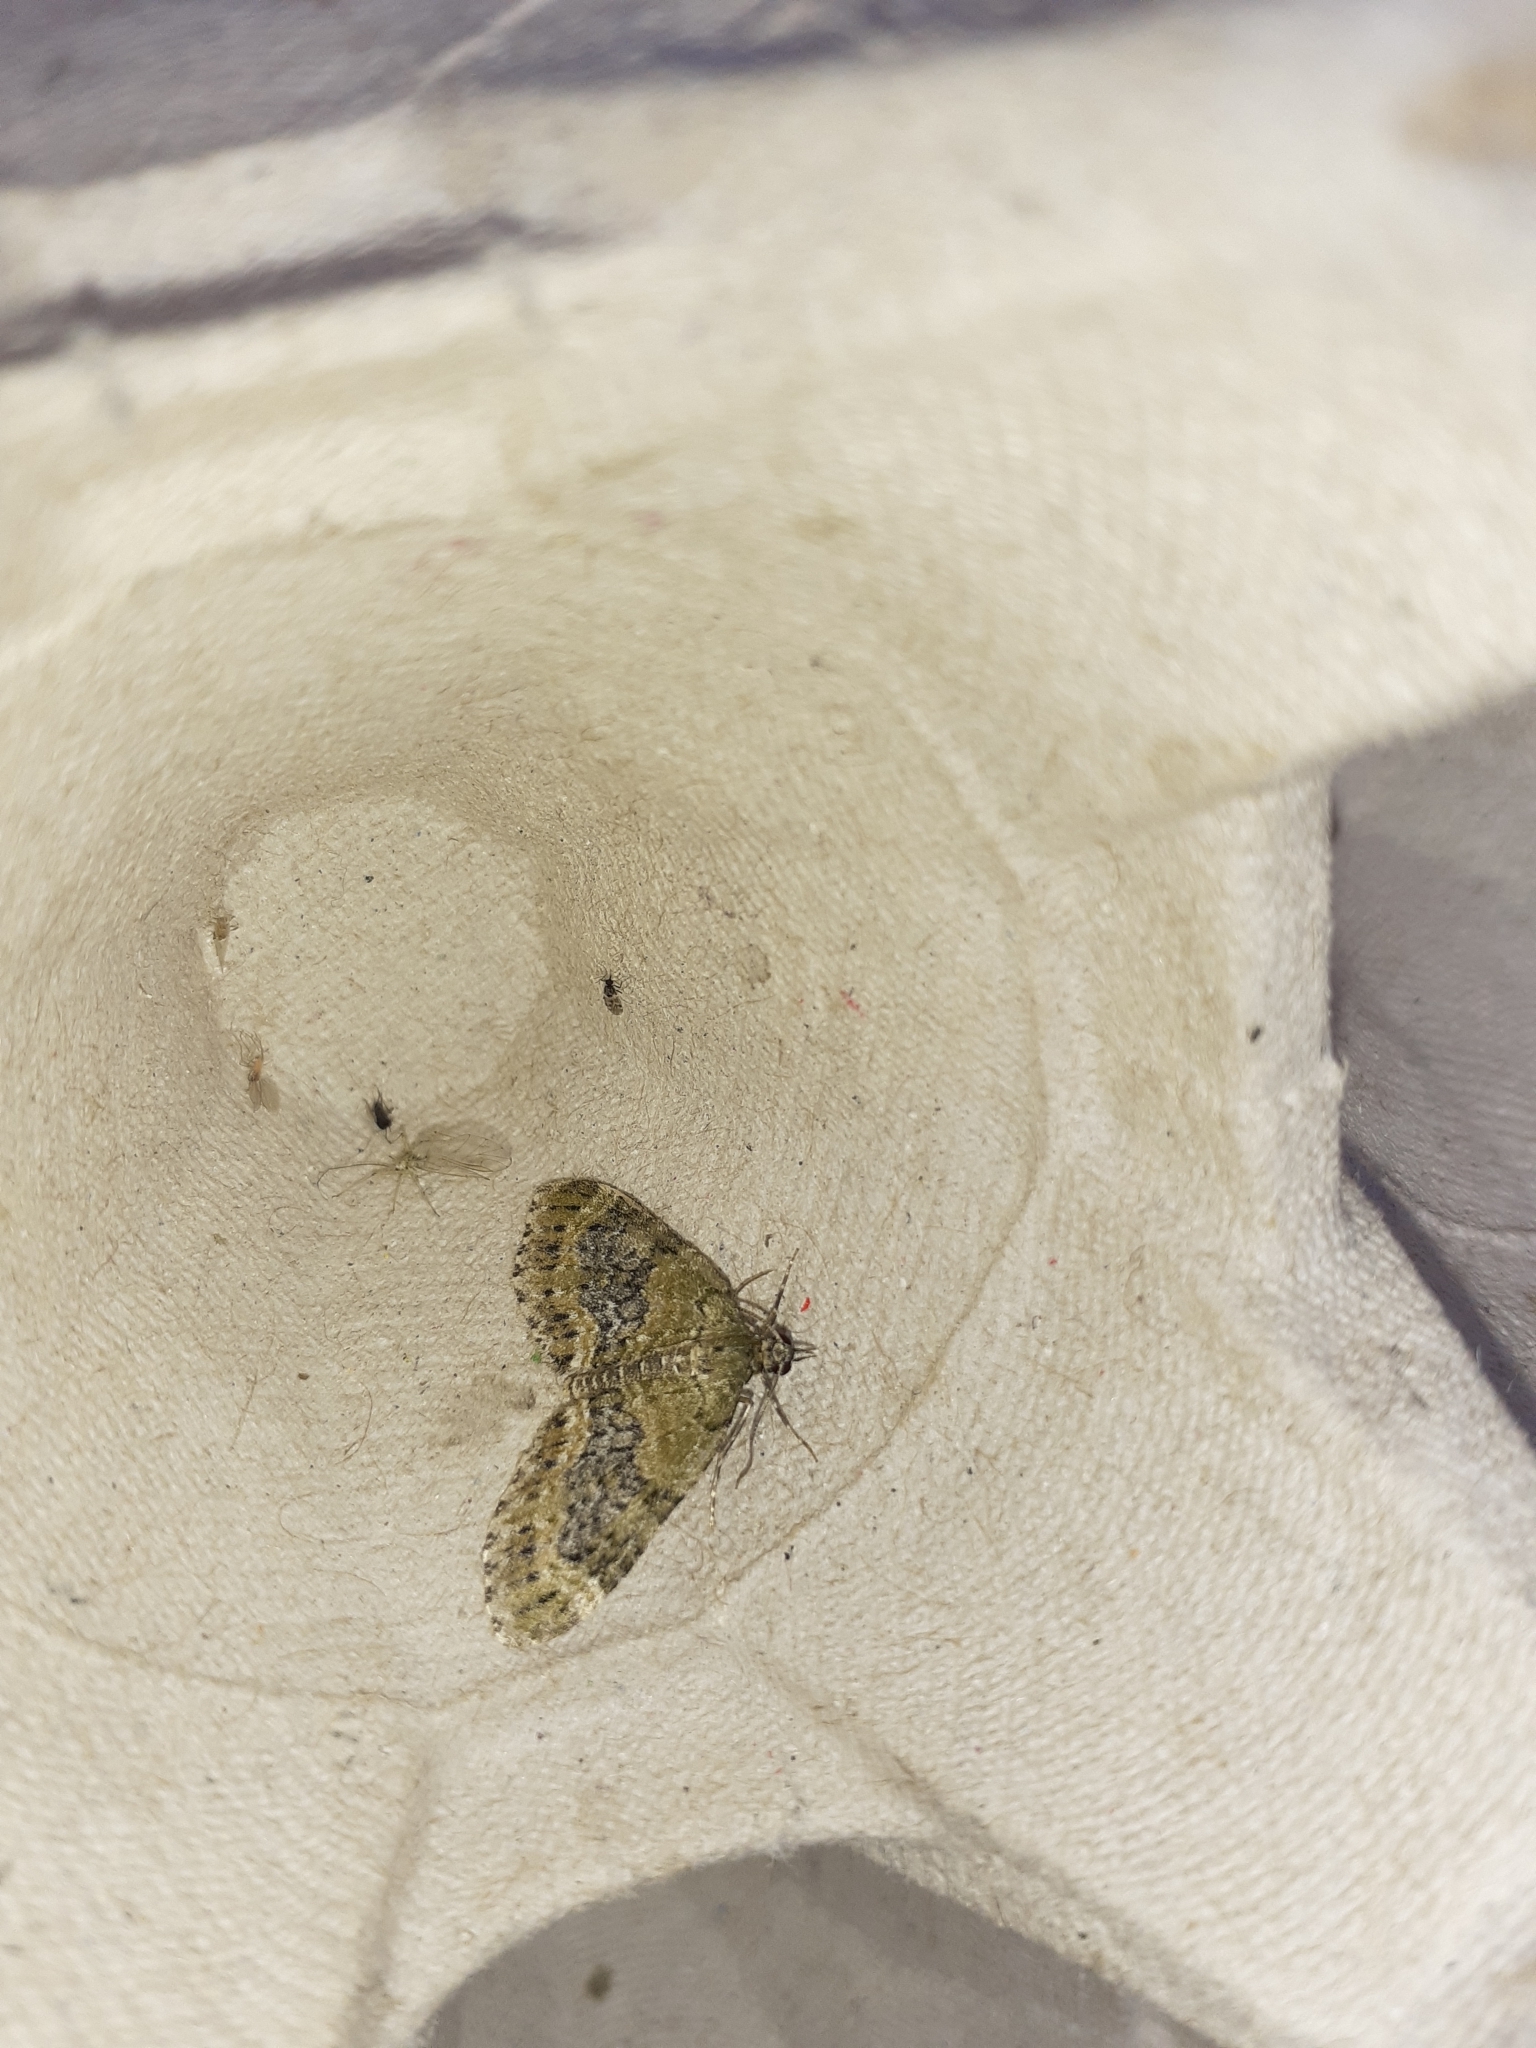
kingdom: Animalia
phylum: Arthropoda
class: Insecta
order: Lepidoptera
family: Geometridae
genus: Acasis
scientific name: Acasis viretata
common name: Yellow-barred brindle
